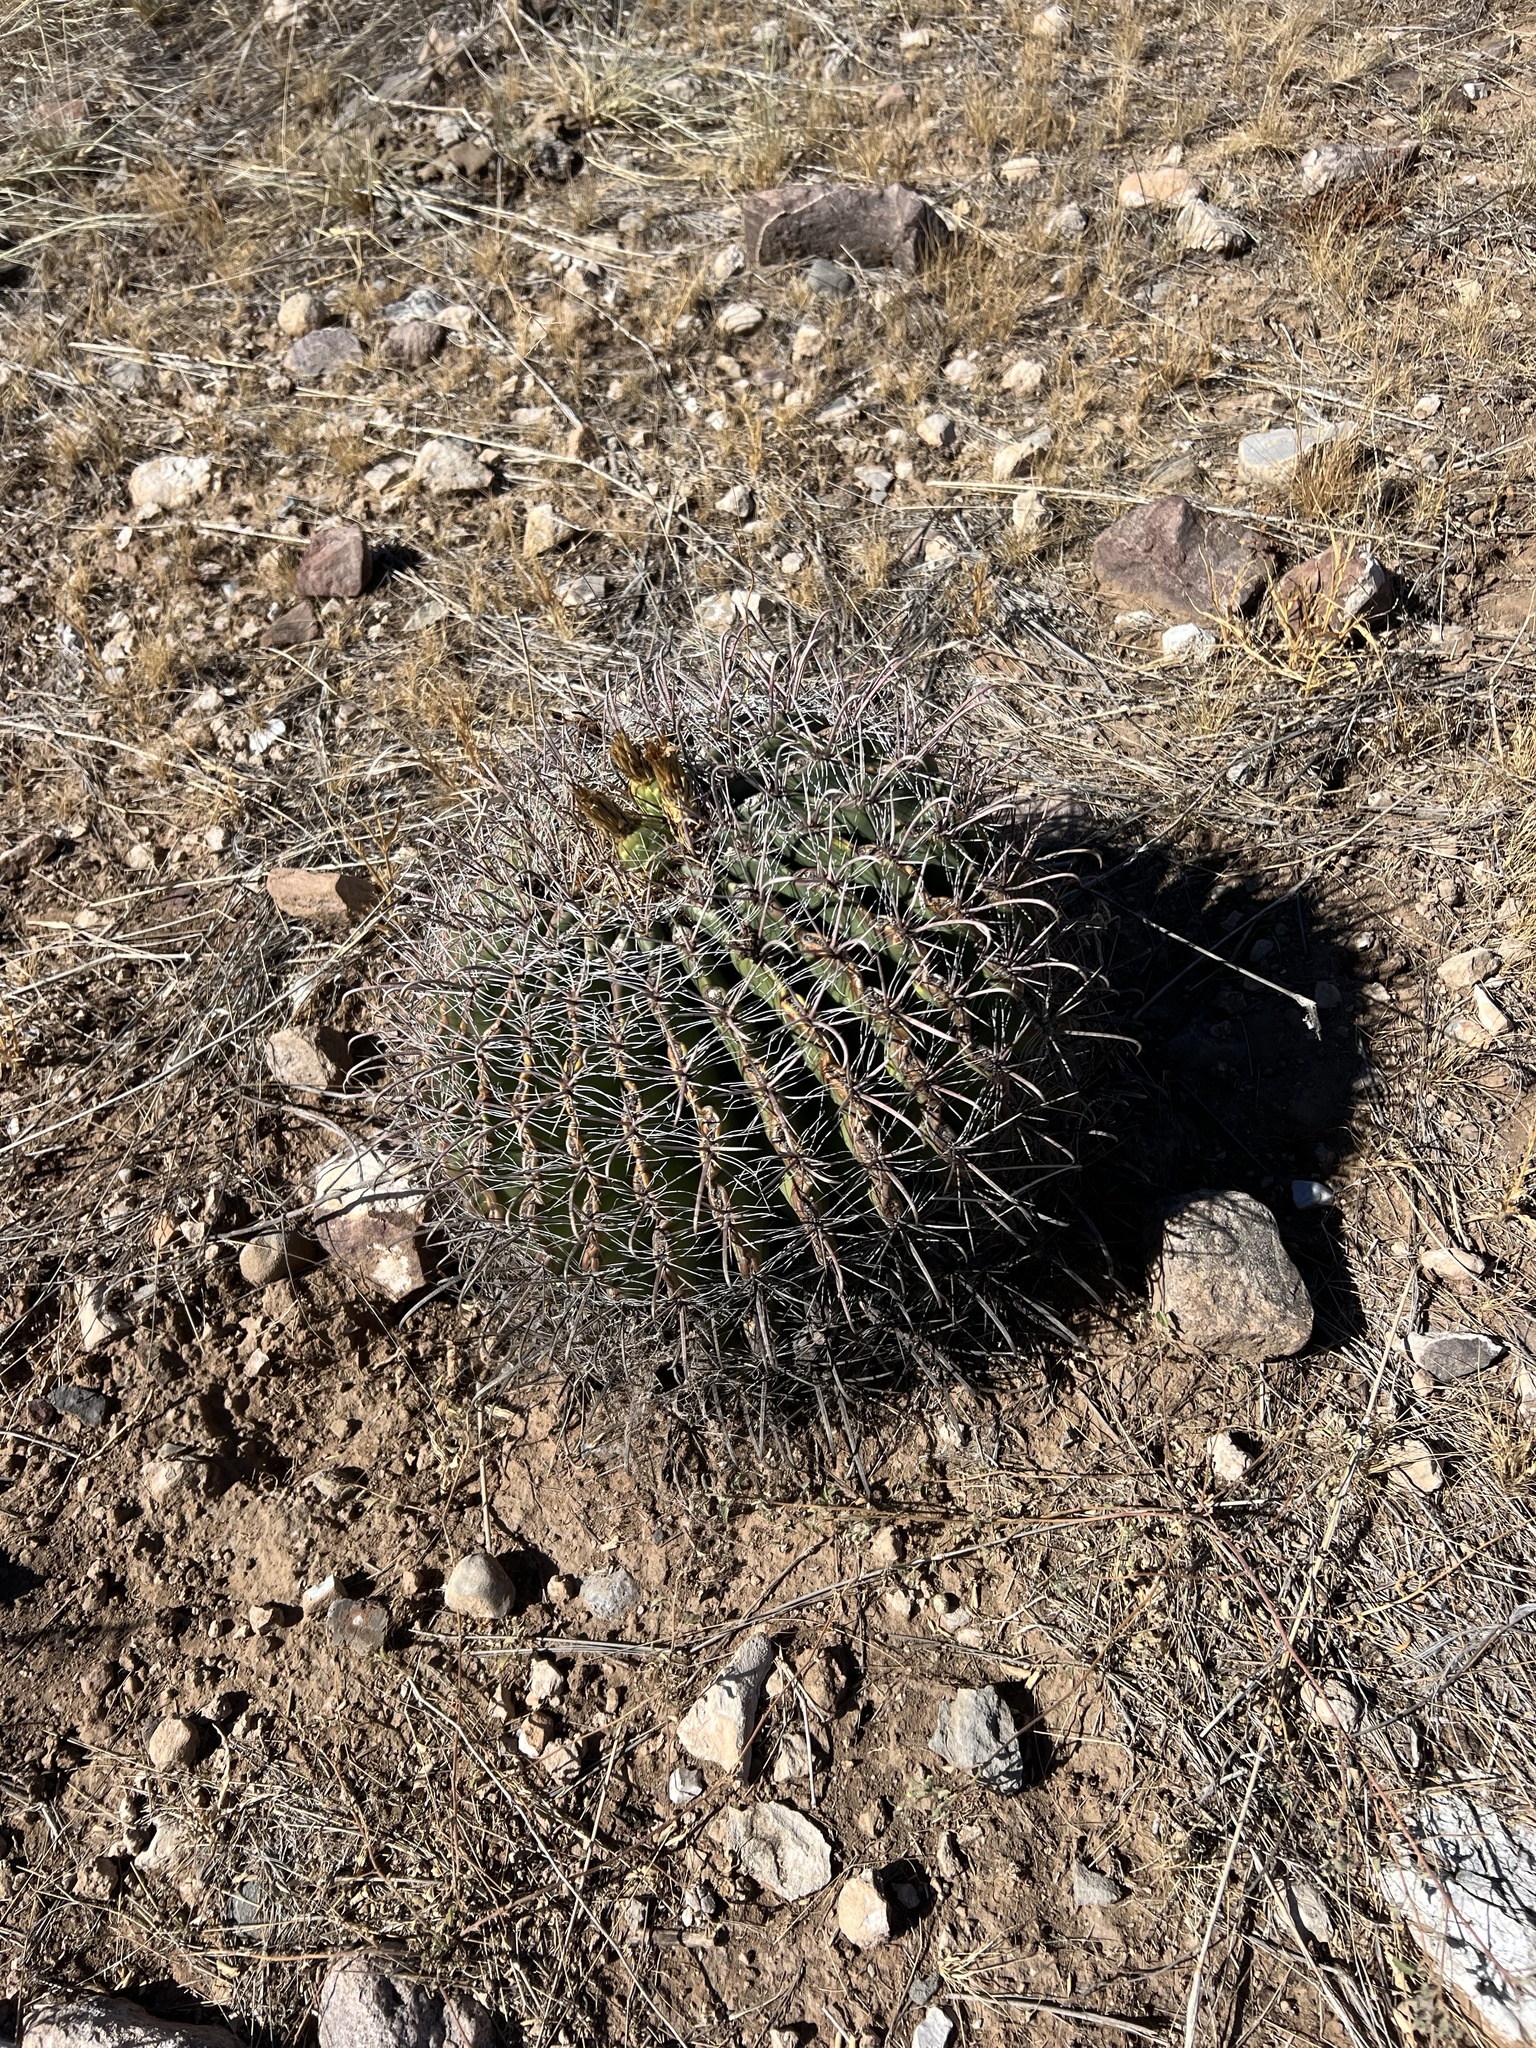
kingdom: Plantae
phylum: Tracheophyta
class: Magnoliopsida
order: Caryophyllales
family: Cactaceae
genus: Ferocactus
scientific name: Ferocactus wislizeni
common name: Candy barrel cactus
